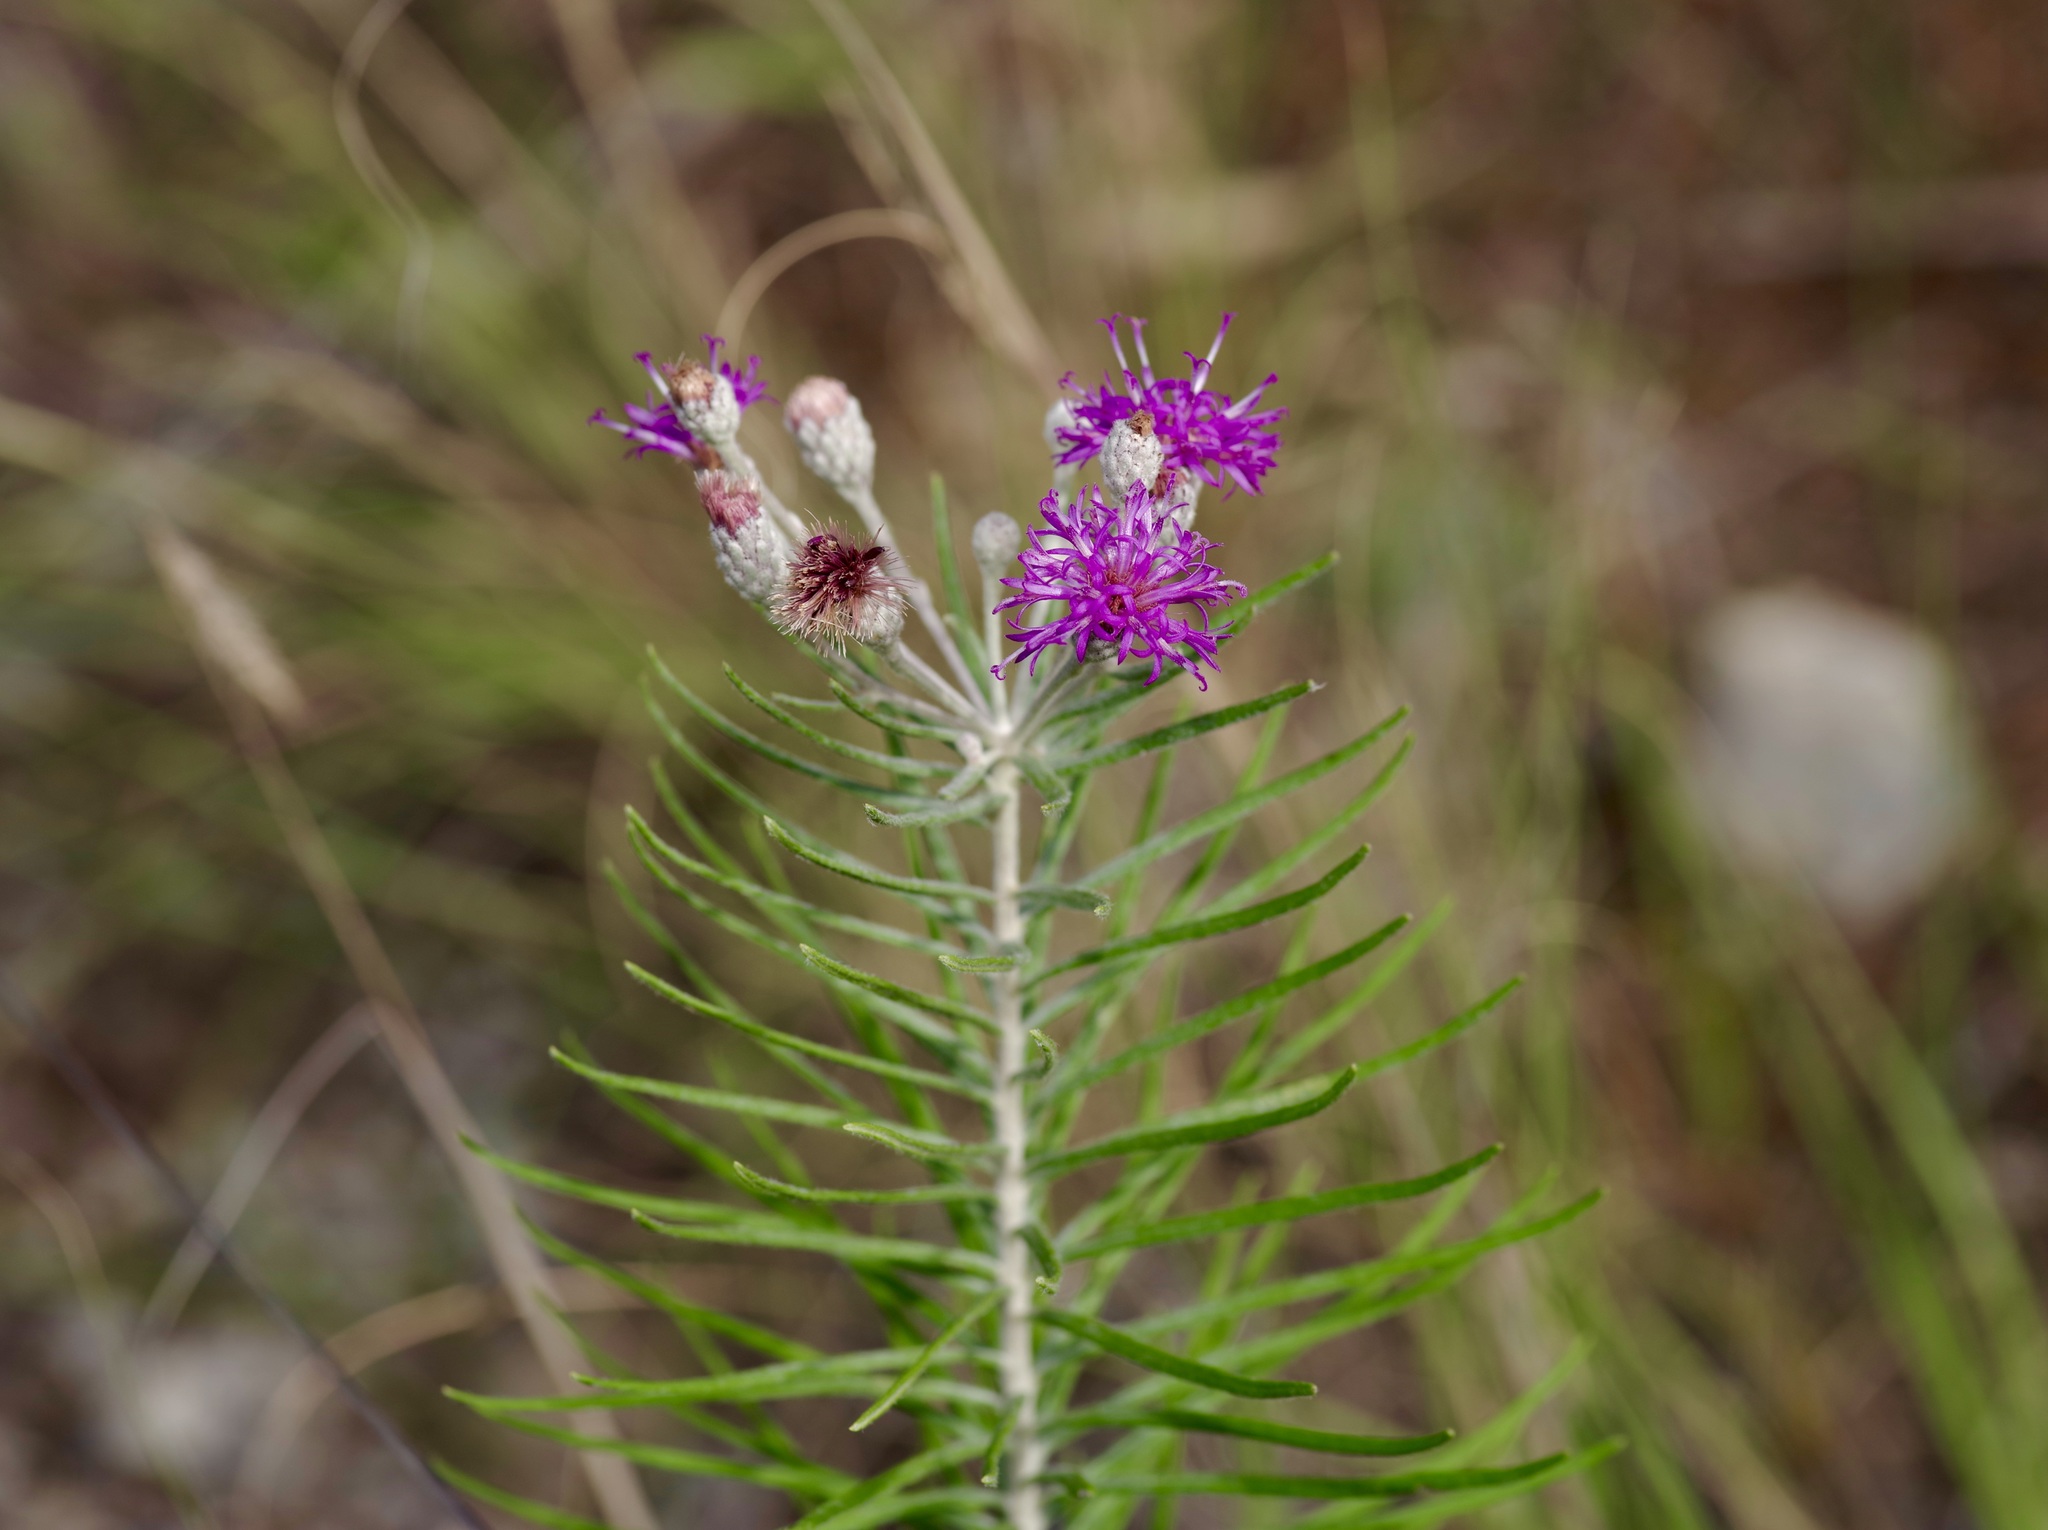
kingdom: Plantae
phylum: Tracheophyta
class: Magnoliopsida
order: Asterales
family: Asteraceae
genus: Vernonia
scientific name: Vernonia lindheimeri
